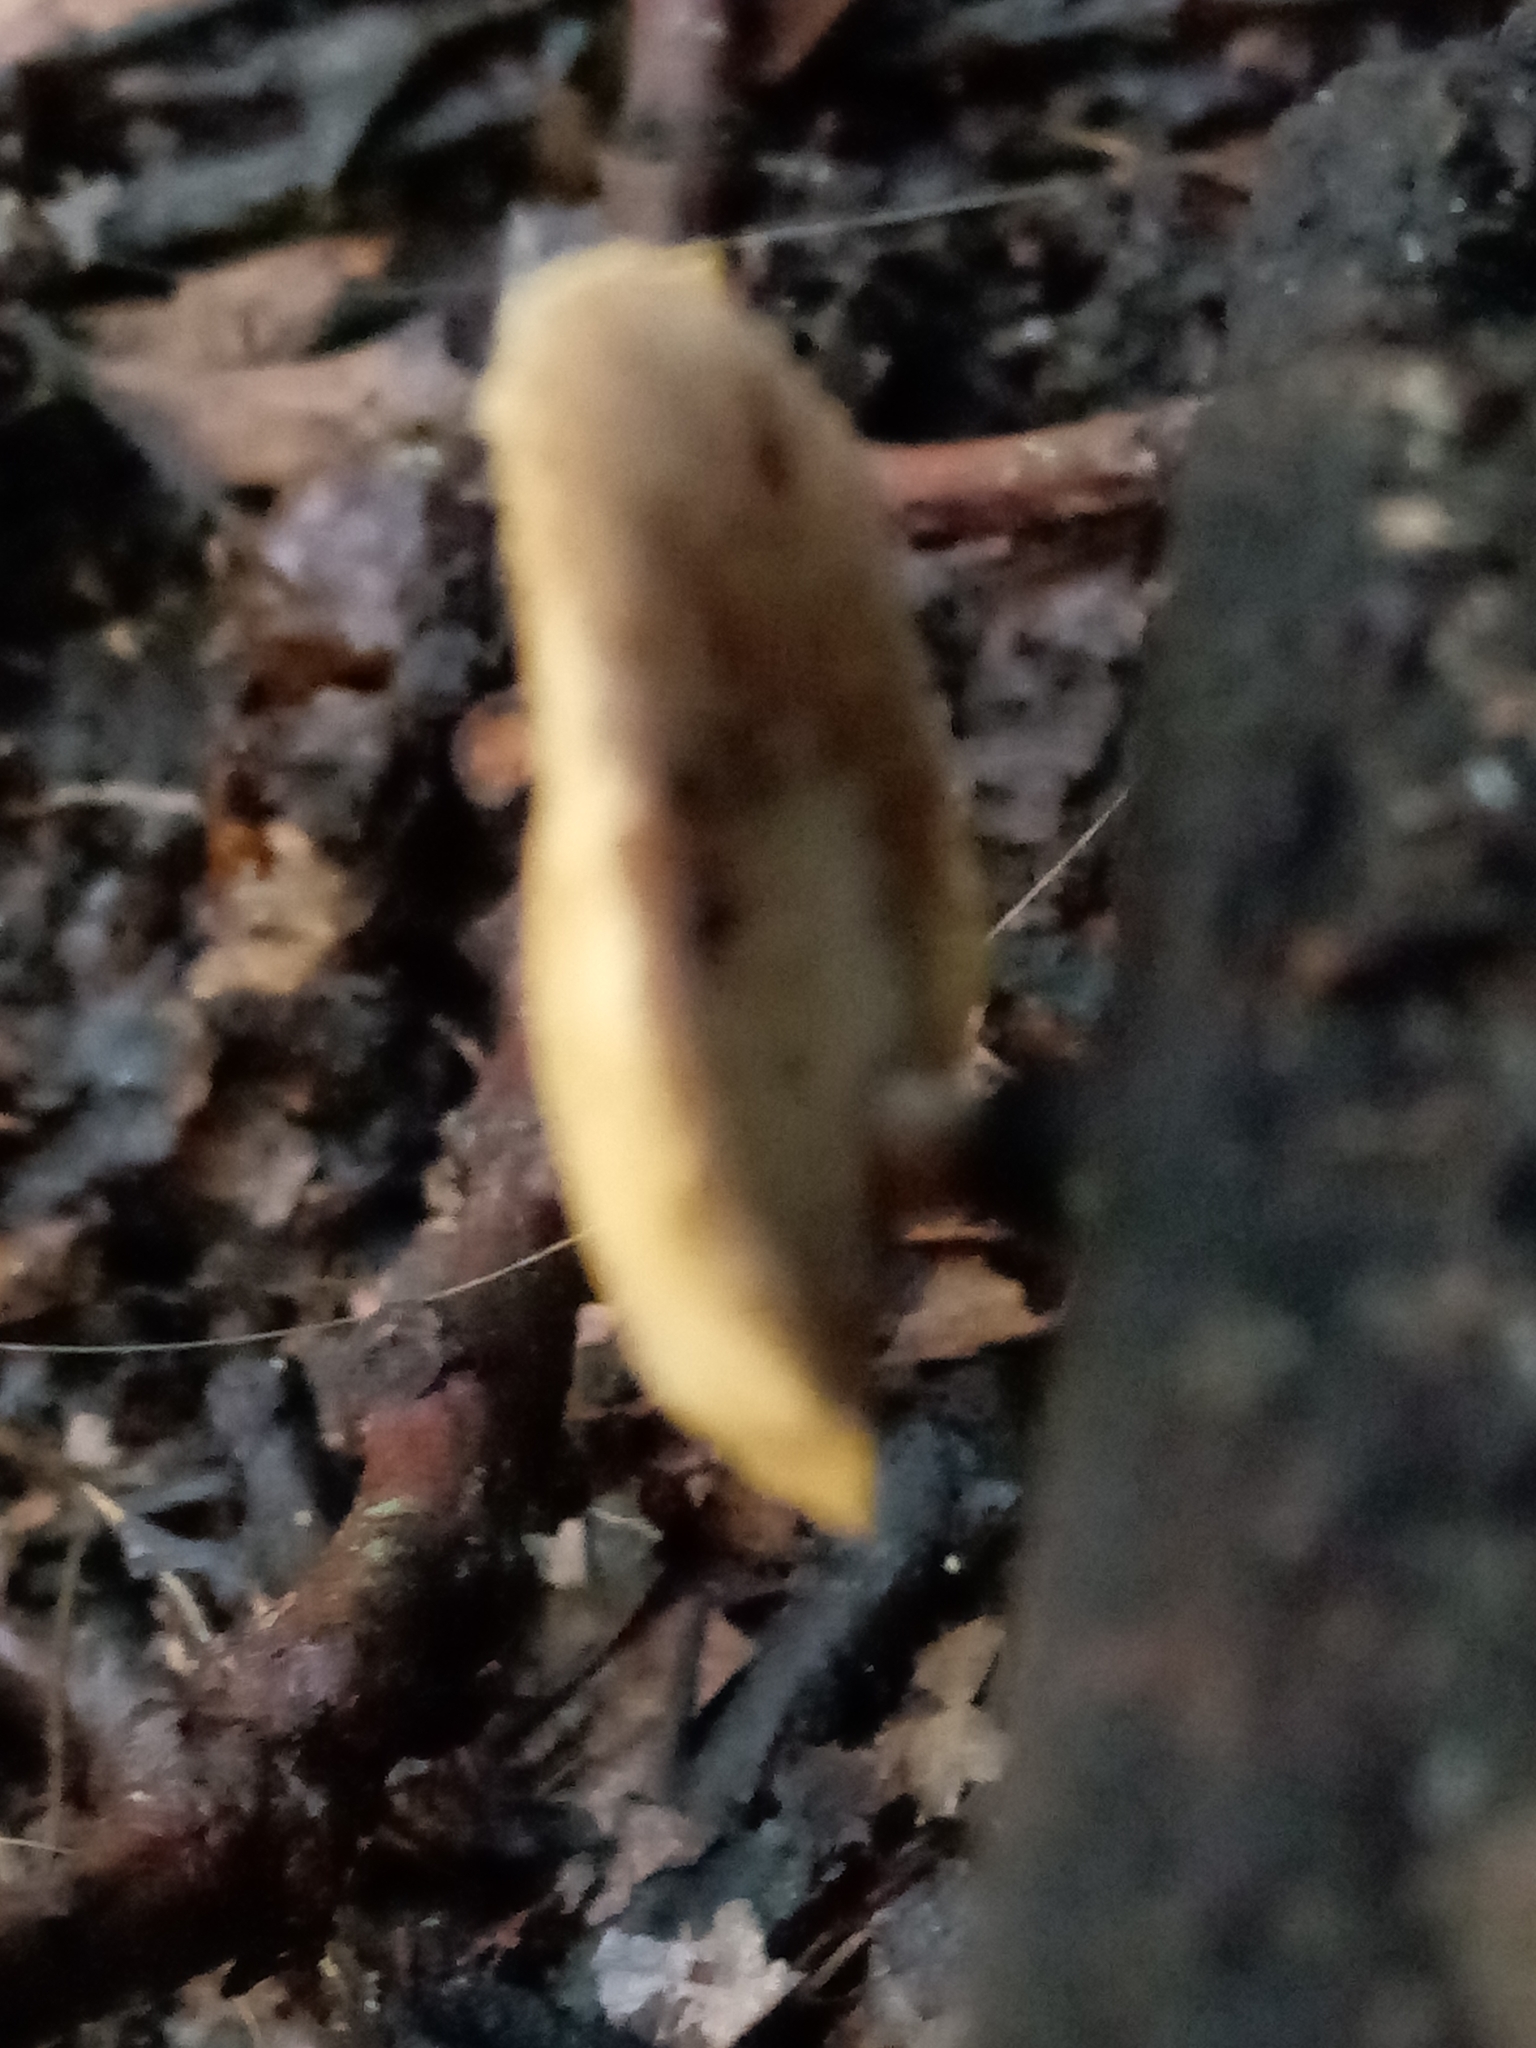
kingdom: Fungi
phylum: Basidiomycota
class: Agaricomycetes
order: Polyporales
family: Polyporaceae
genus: Cerioporus
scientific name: Cerioporus leptocephalus
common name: Blackfoot polypore
